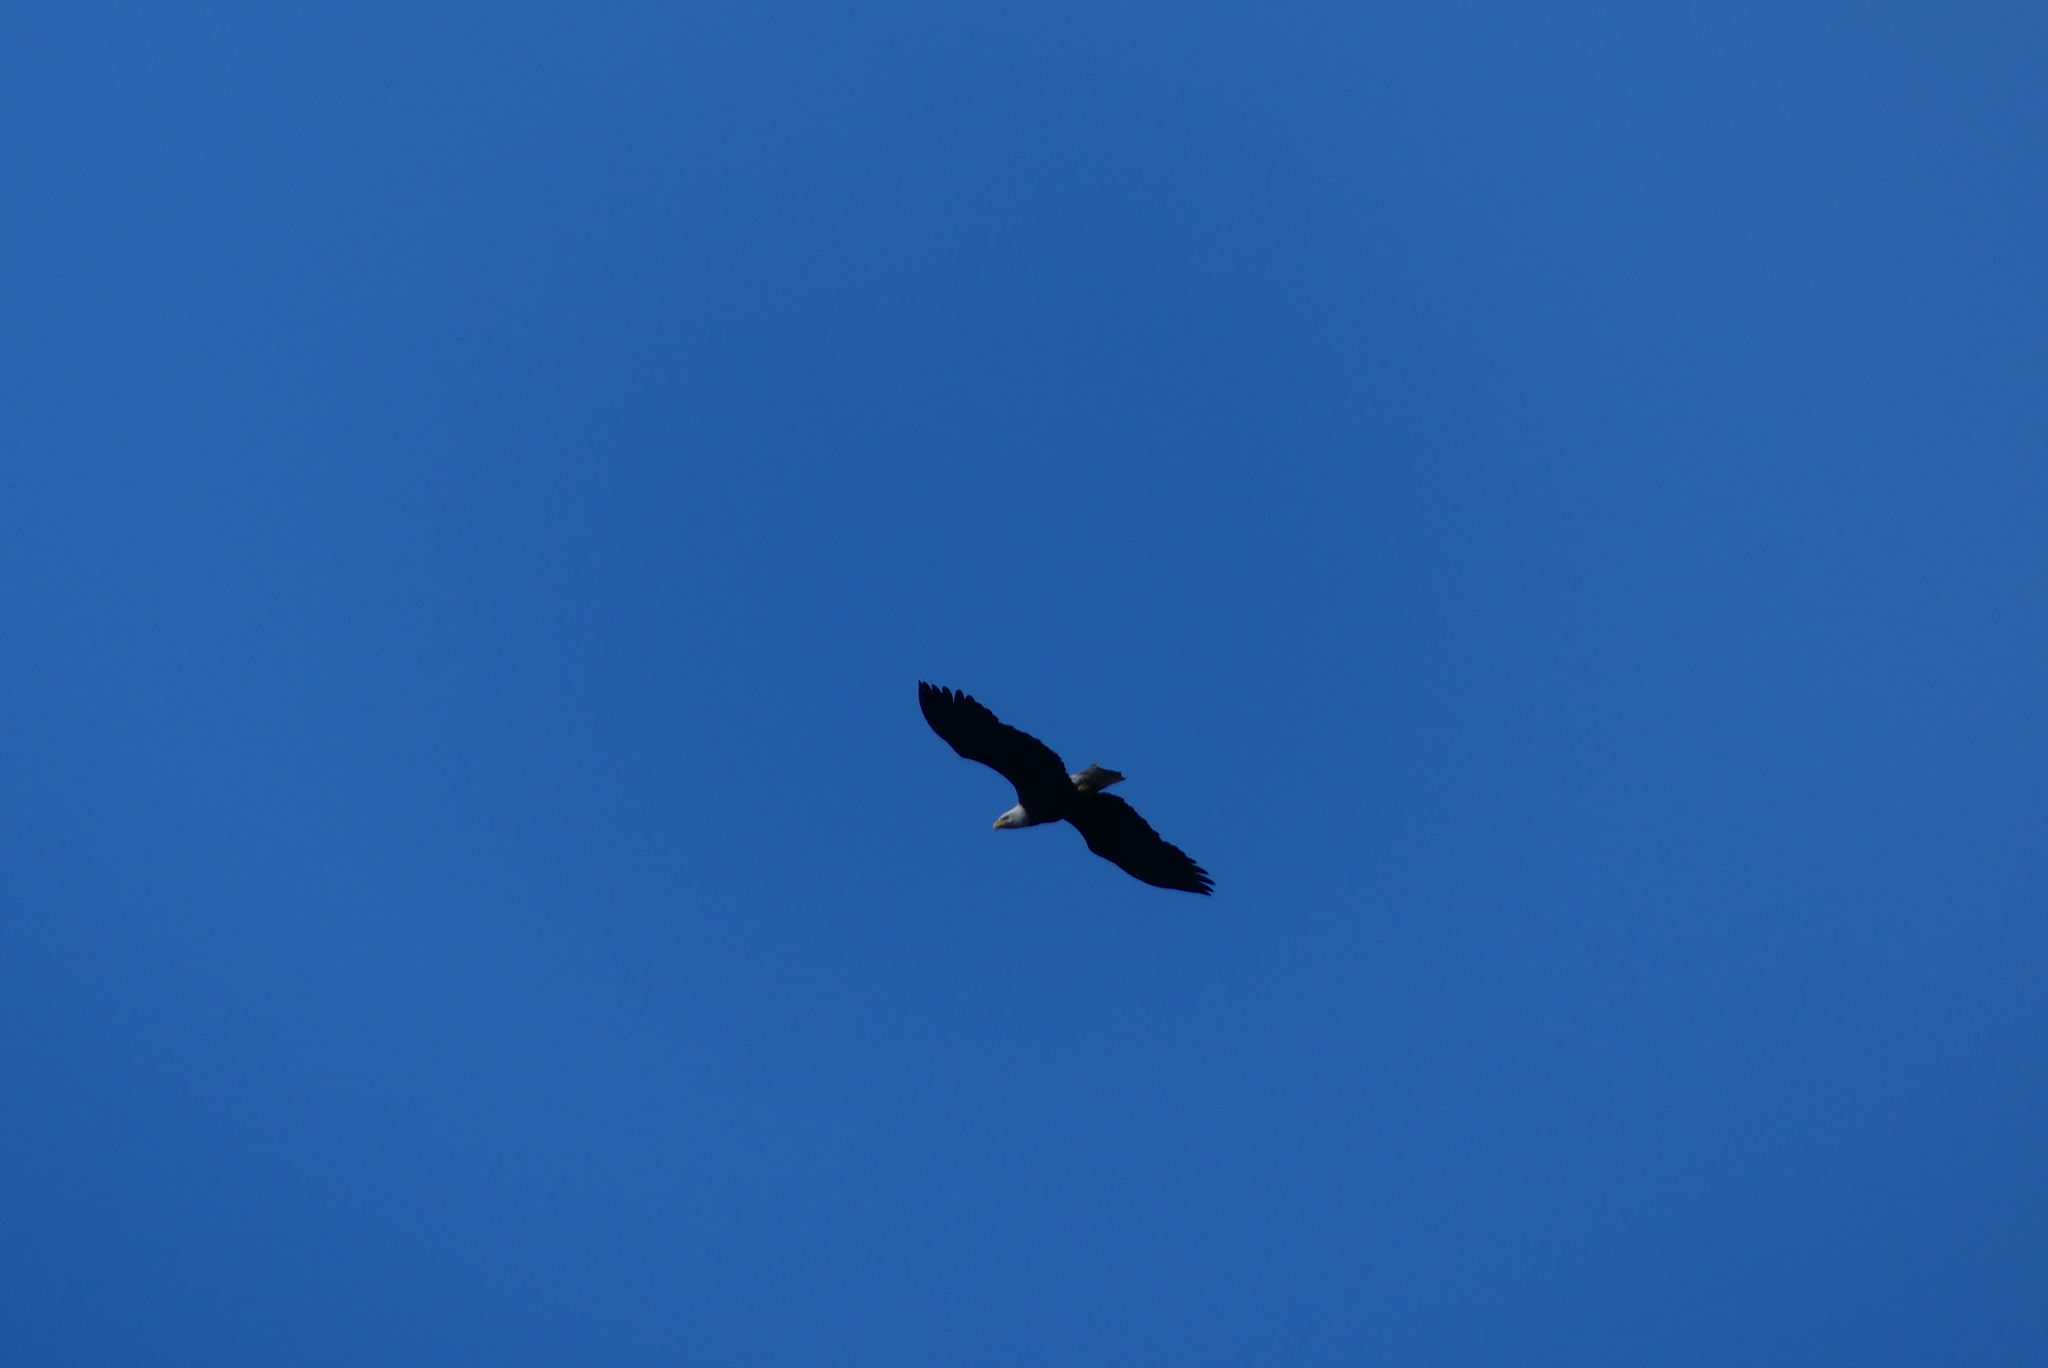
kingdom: Animalia
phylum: Chordata
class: Aves
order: Accipitriformes
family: Accipitridae
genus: Haliaeetus
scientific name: Haliaeetus leucocephalus
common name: Bald eagle
